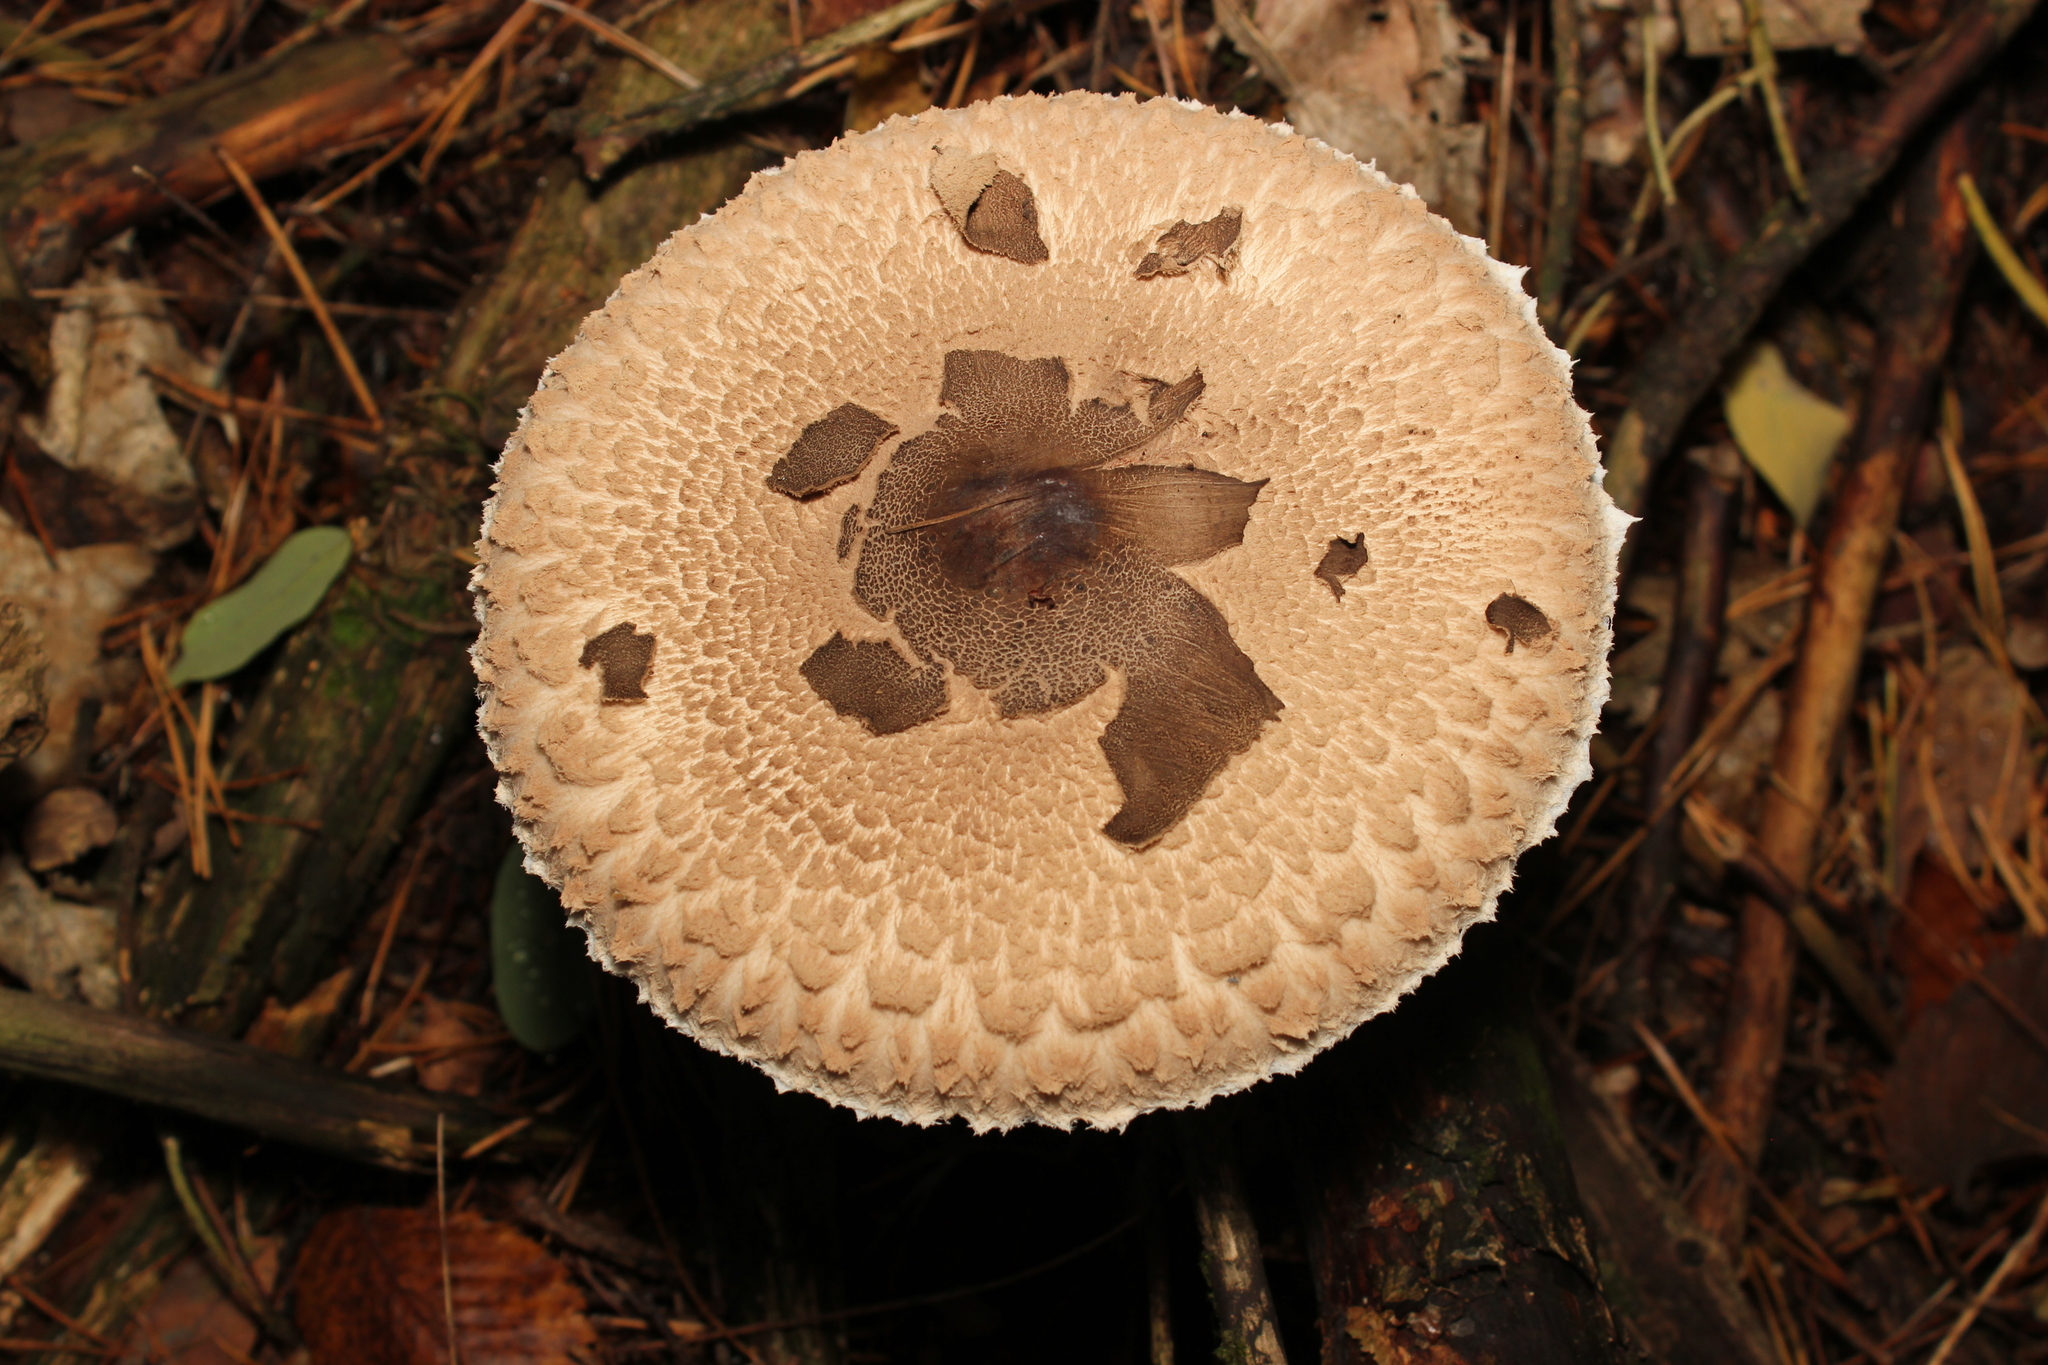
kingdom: Fungi
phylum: Basidiomycota
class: Agaricomycetes
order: Agaricales
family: Agaricaceae
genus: Macrolepiota
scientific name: Macrolepiota procera
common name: Parasol
